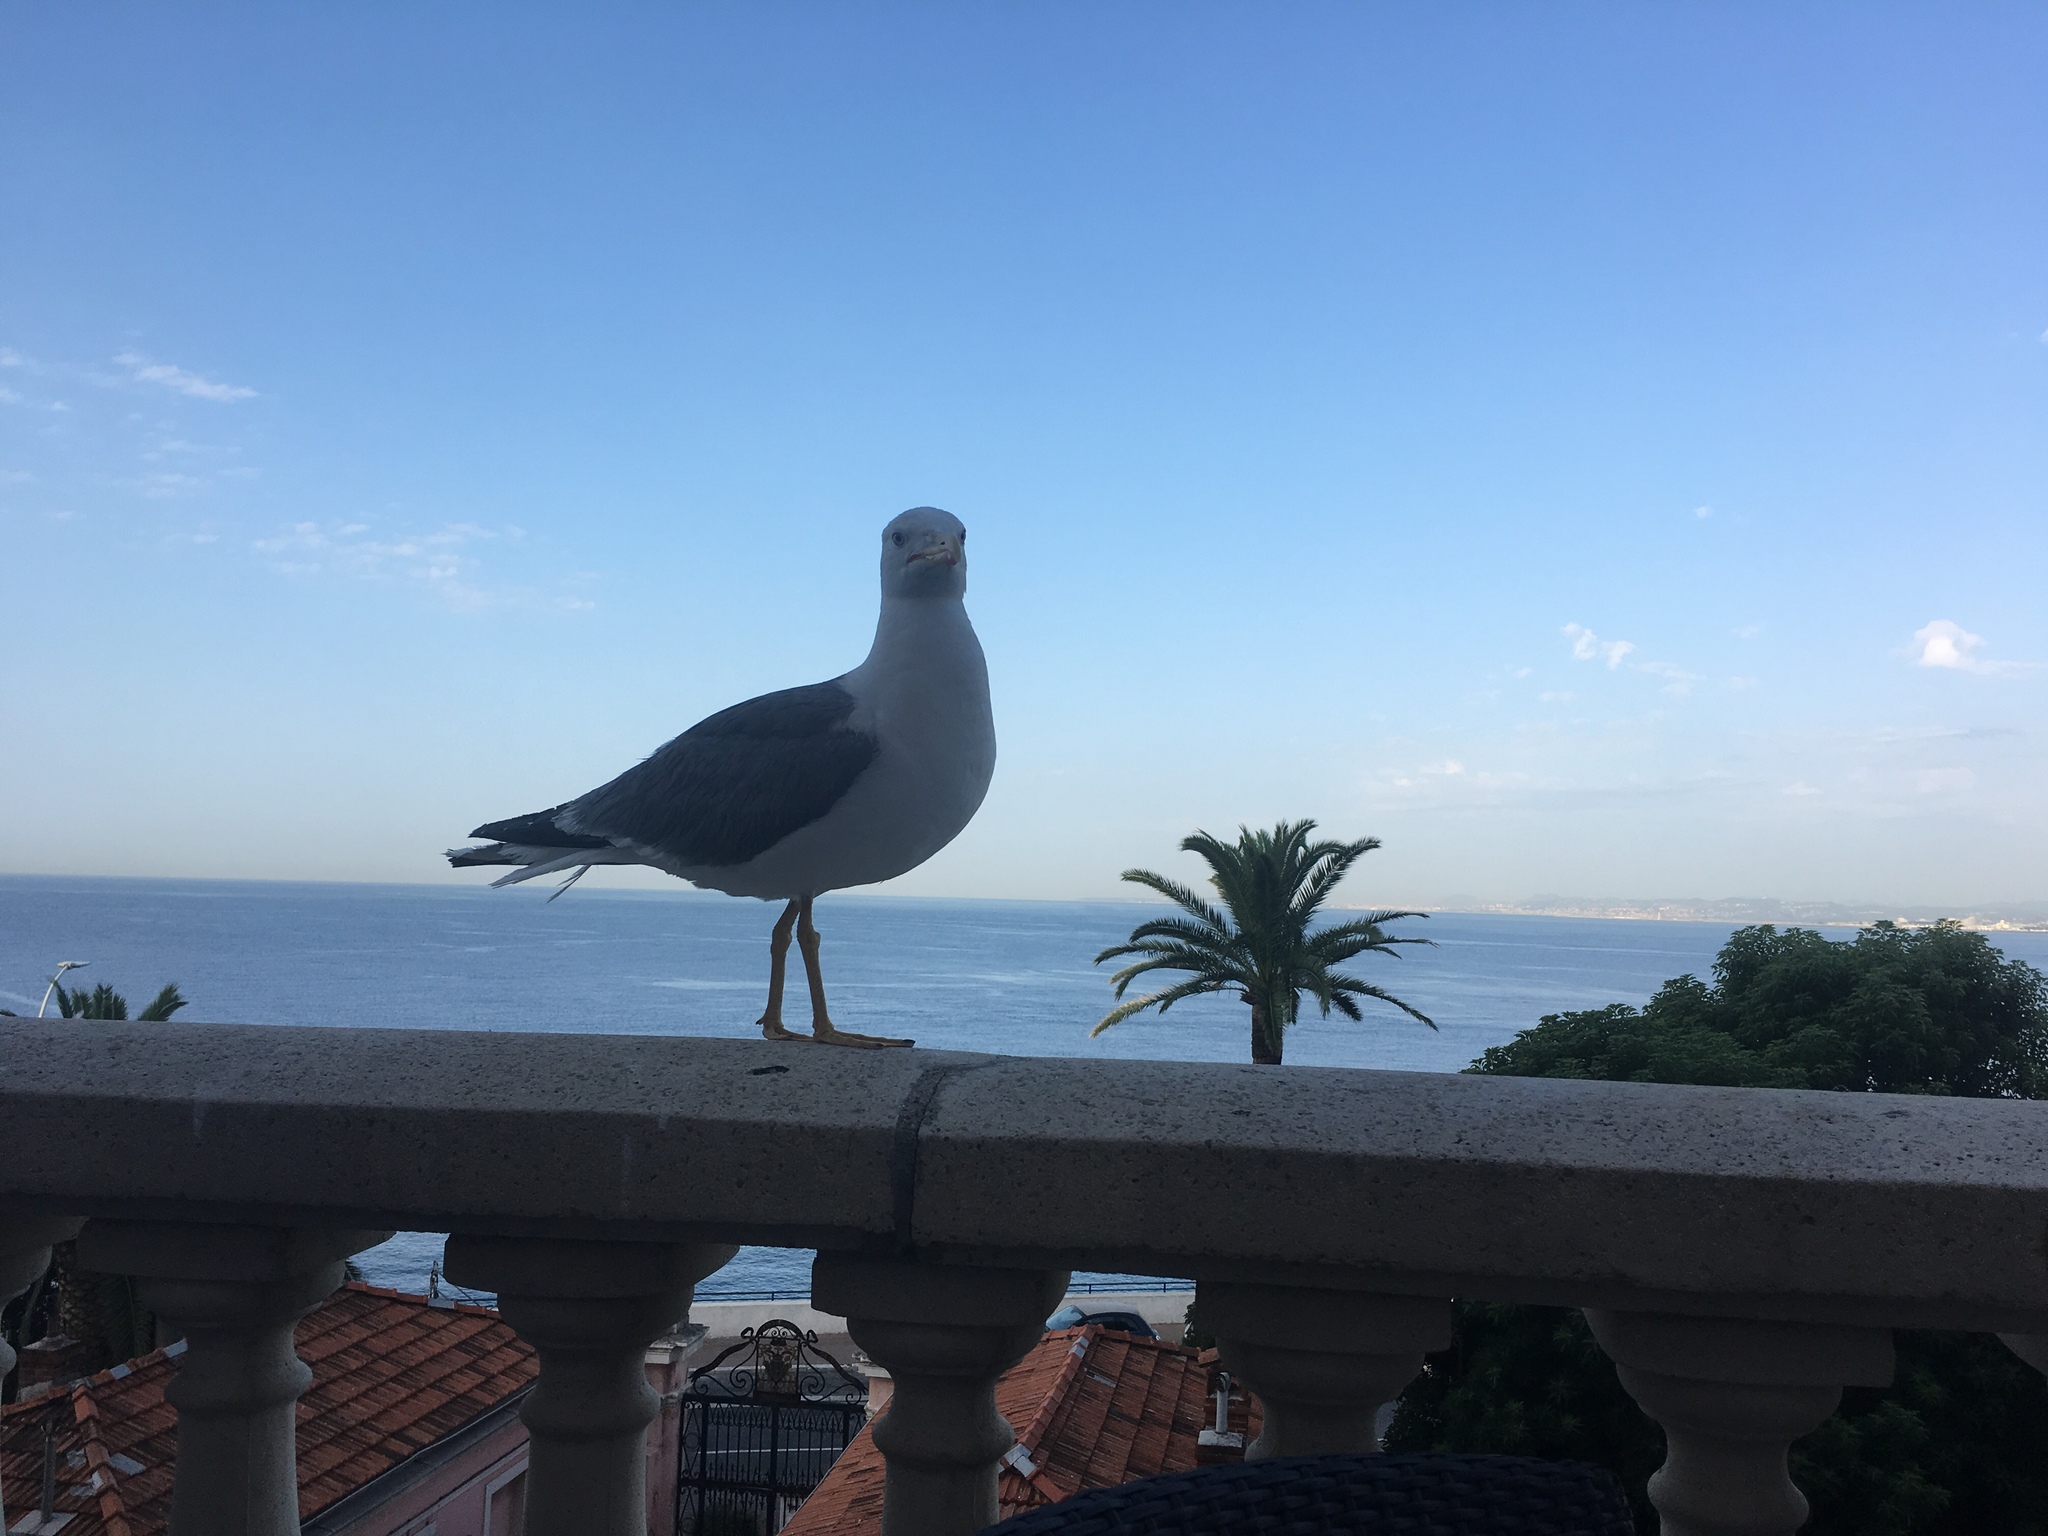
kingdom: Animalia
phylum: Chordata
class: Aves
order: Charadriiformes
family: Laridae
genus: Larus
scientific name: Larus michahellis
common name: Yellow-legged gull
